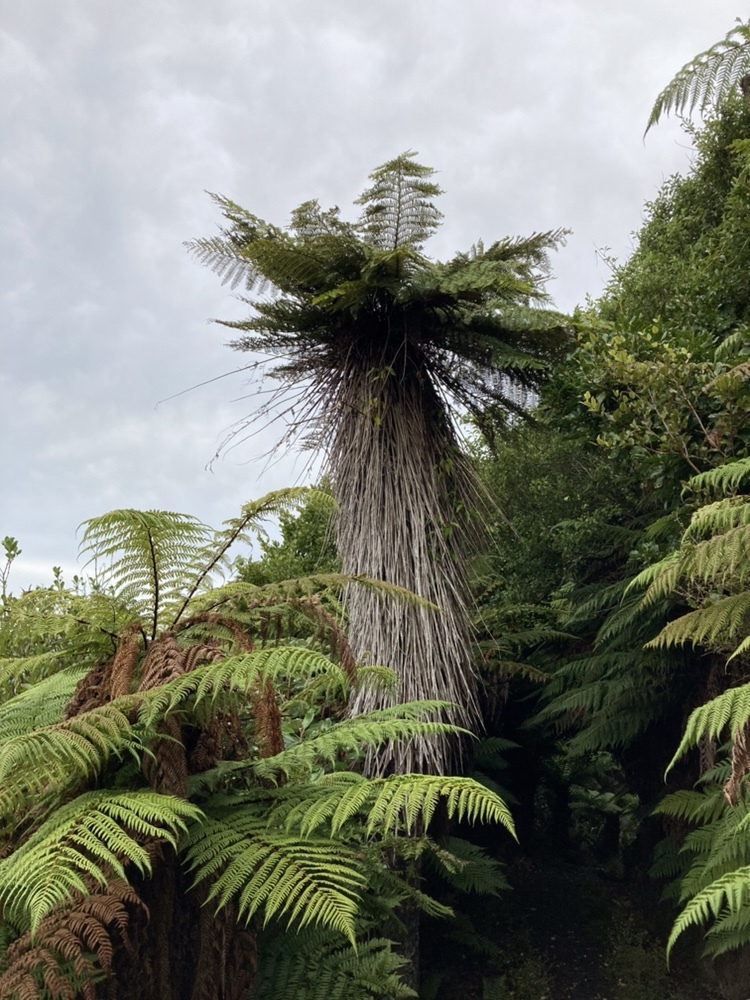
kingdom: Plantae
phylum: Tracheophyta
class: Polypodiopsida
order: Cyatheales
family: Cyatheaceae
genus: Alsophila
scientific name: Alsophila smithii
